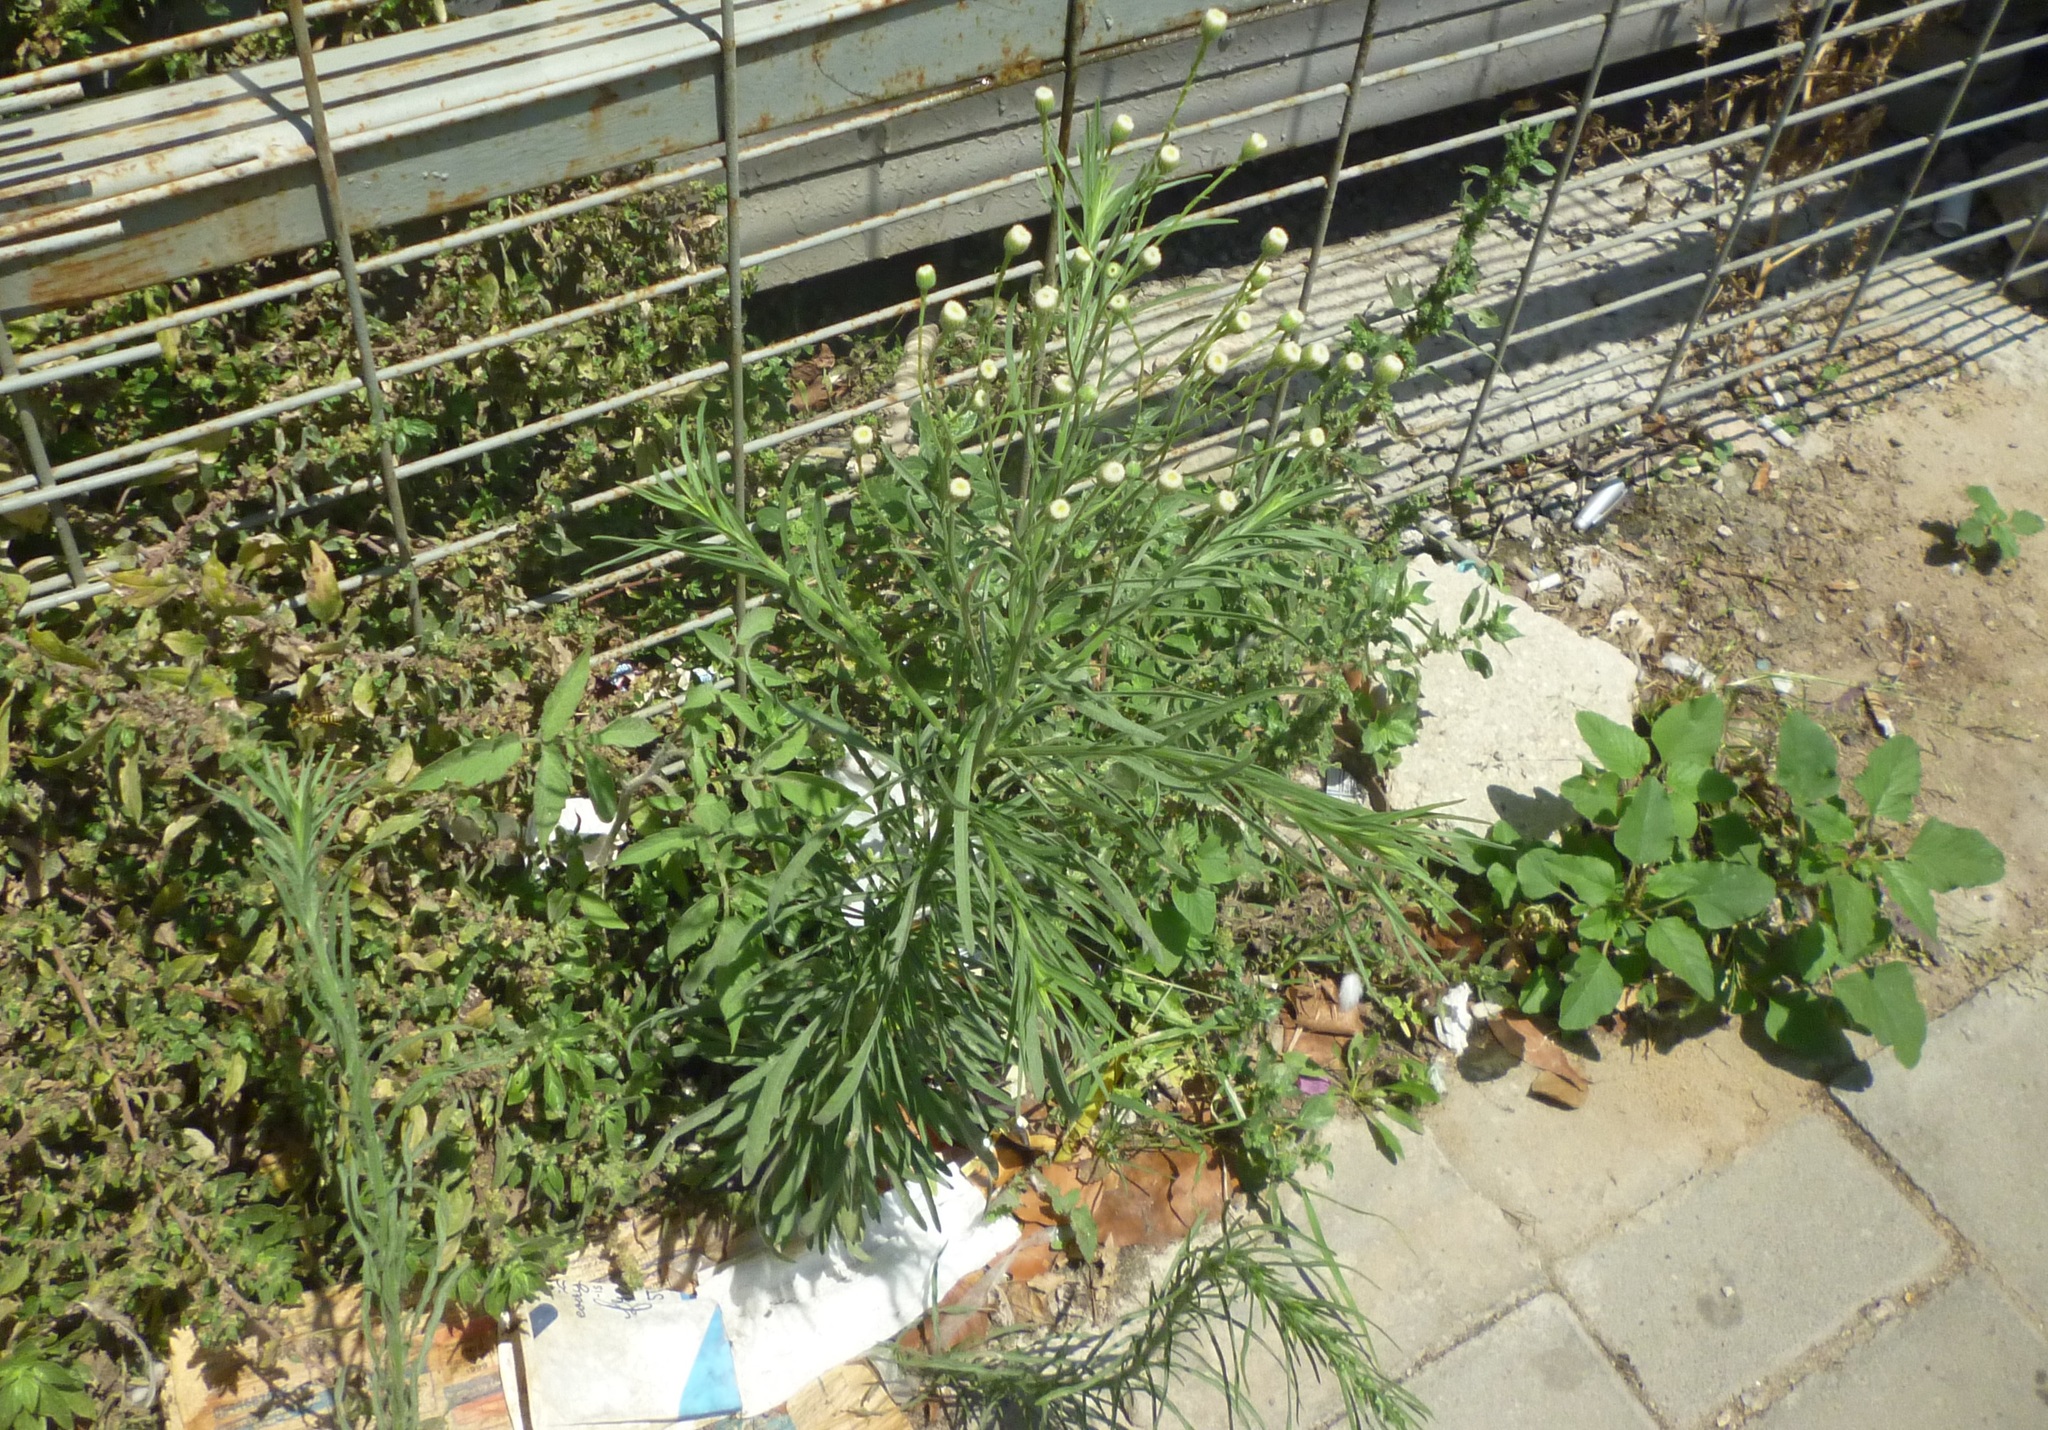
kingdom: Plantae
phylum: Tracheophyta
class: Magnoliopsida
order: Asterales
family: Asteraceae
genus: Erigeron
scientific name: Erigeron canadensis
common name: Canadian fleabane
